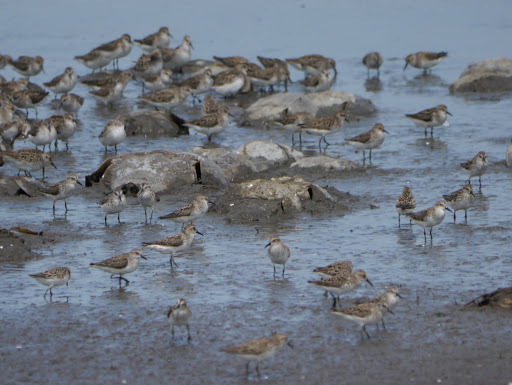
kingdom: Animalia
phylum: Chordata
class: Aves
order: Charadriiformes
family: Scolopacidae
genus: Calidris
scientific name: Calidris alba
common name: Sanderling
